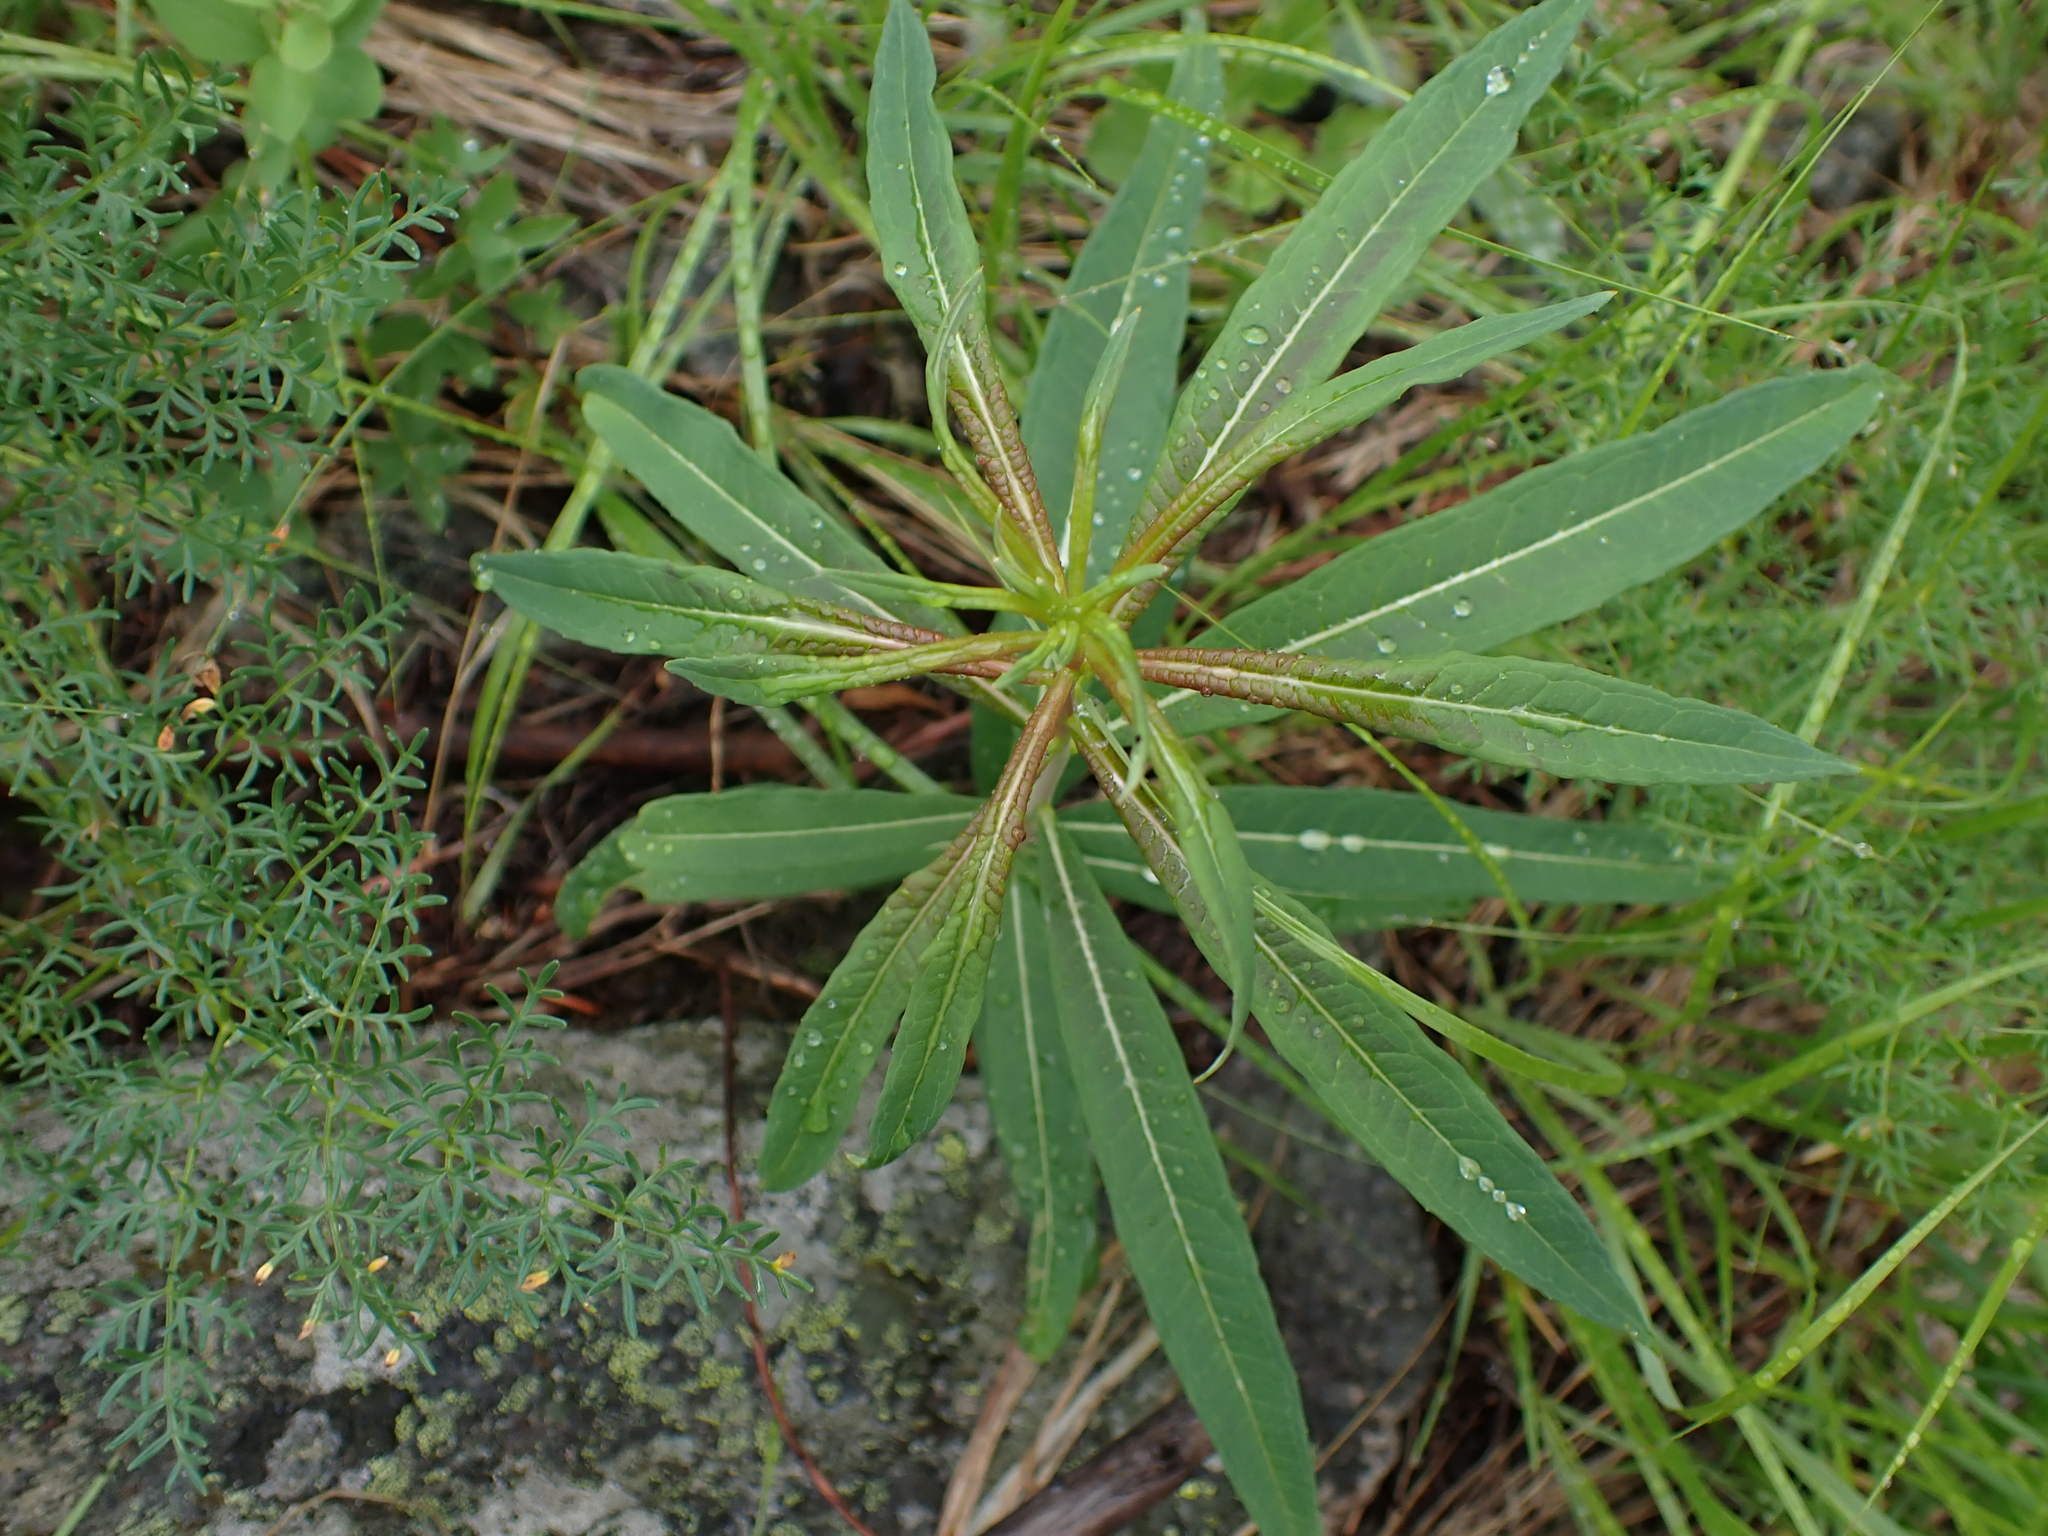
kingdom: Plantae
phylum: Tracheophyta
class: Magnoliopsida
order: Myrtales
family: Onagraceae
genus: Chamaenerion
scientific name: Chamaenerion angustifolium
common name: Fireweed
